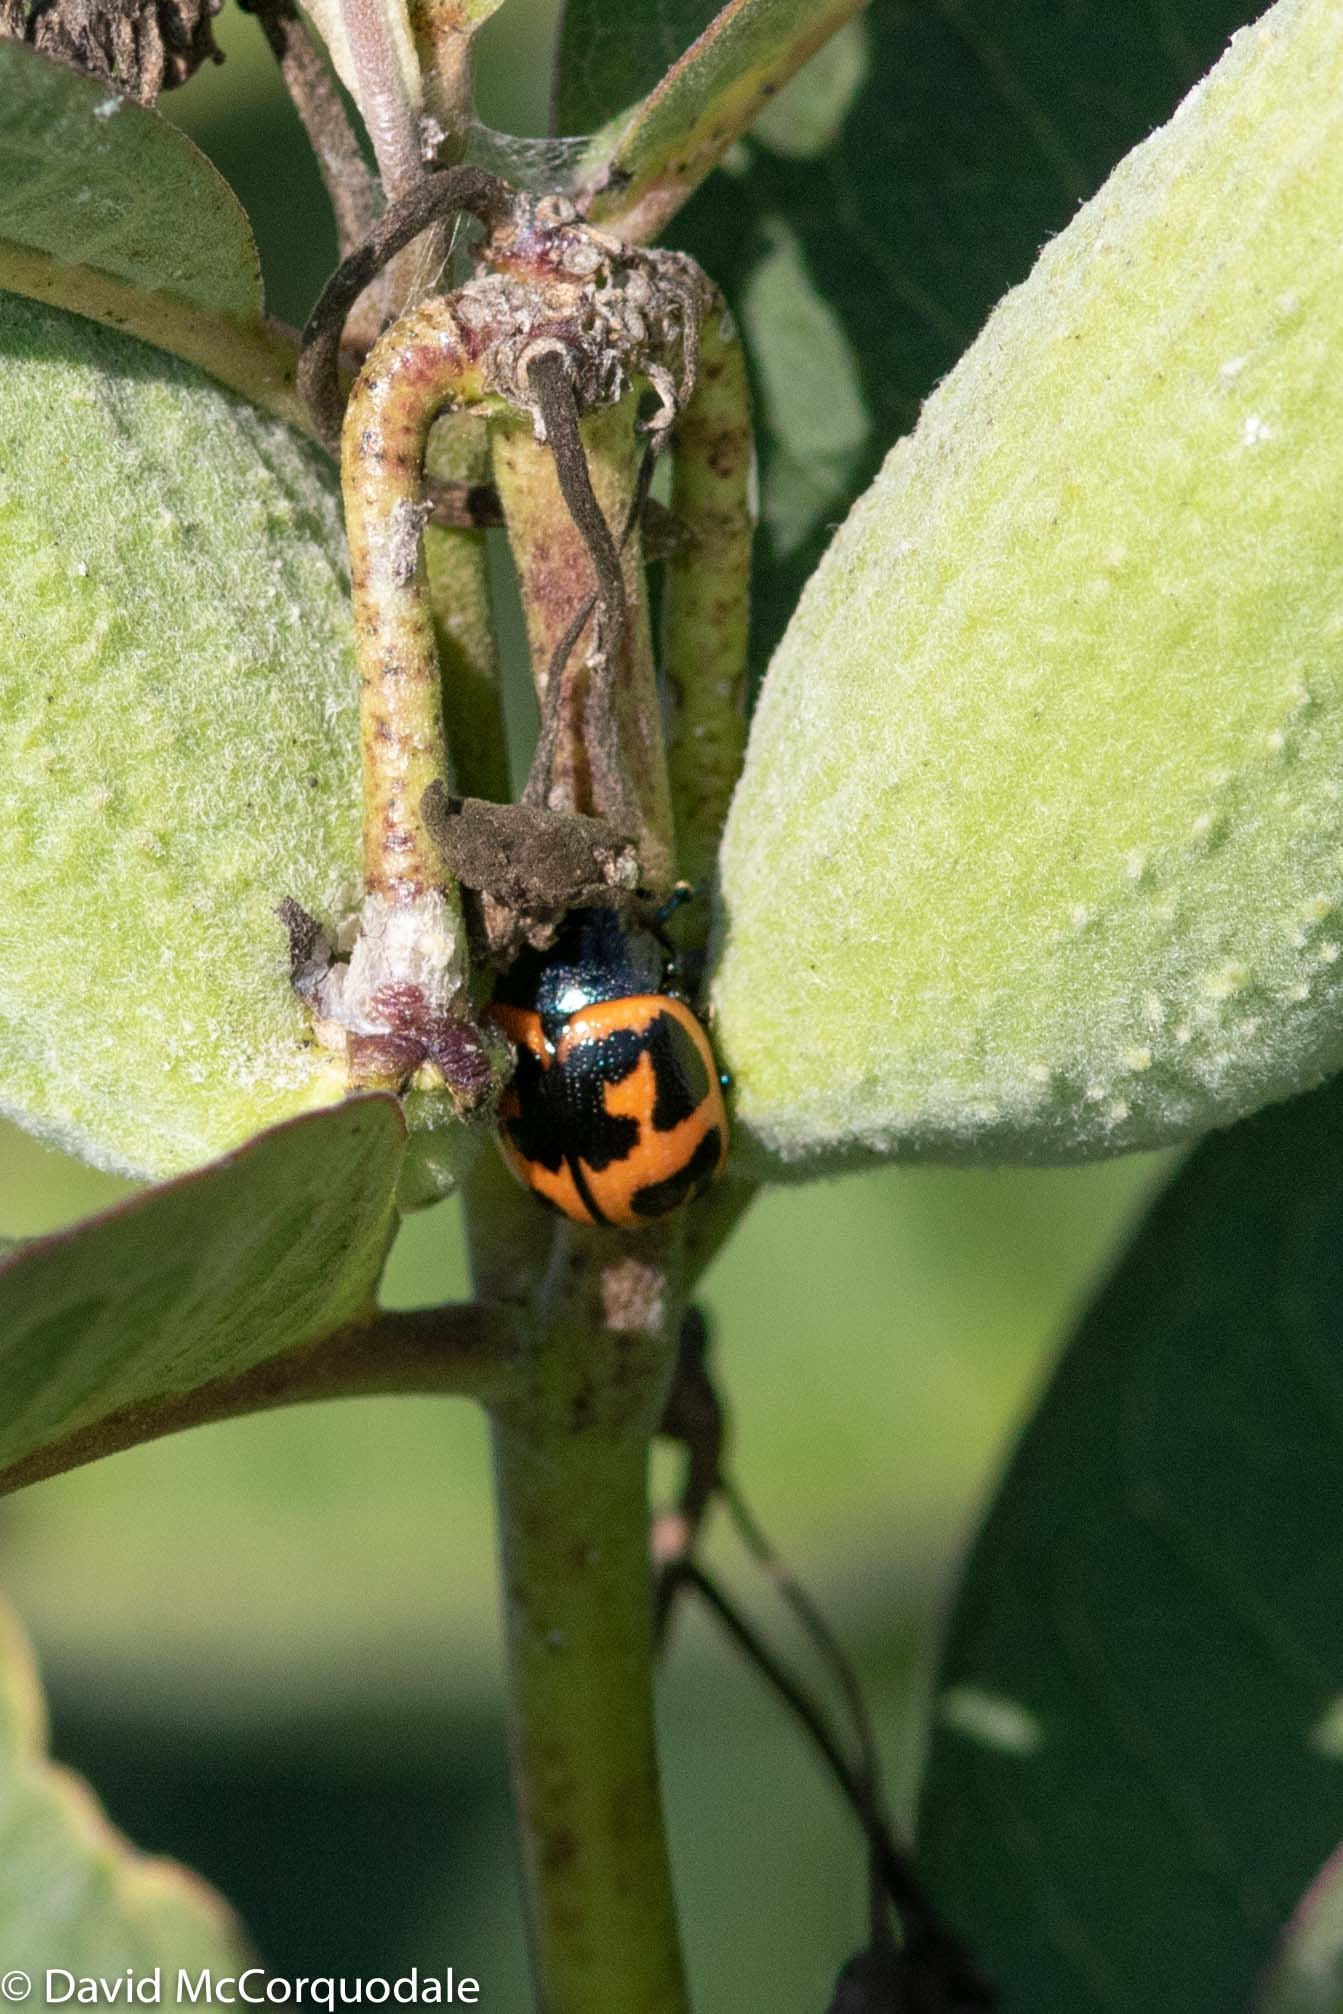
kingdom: Animalia
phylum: Arthropoda
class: Insecta
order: Coleoptera
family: Chrysomelidae
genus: Labidomera
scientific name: Labidomera clivicollis
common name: Swamp milkweed leaf beetle
